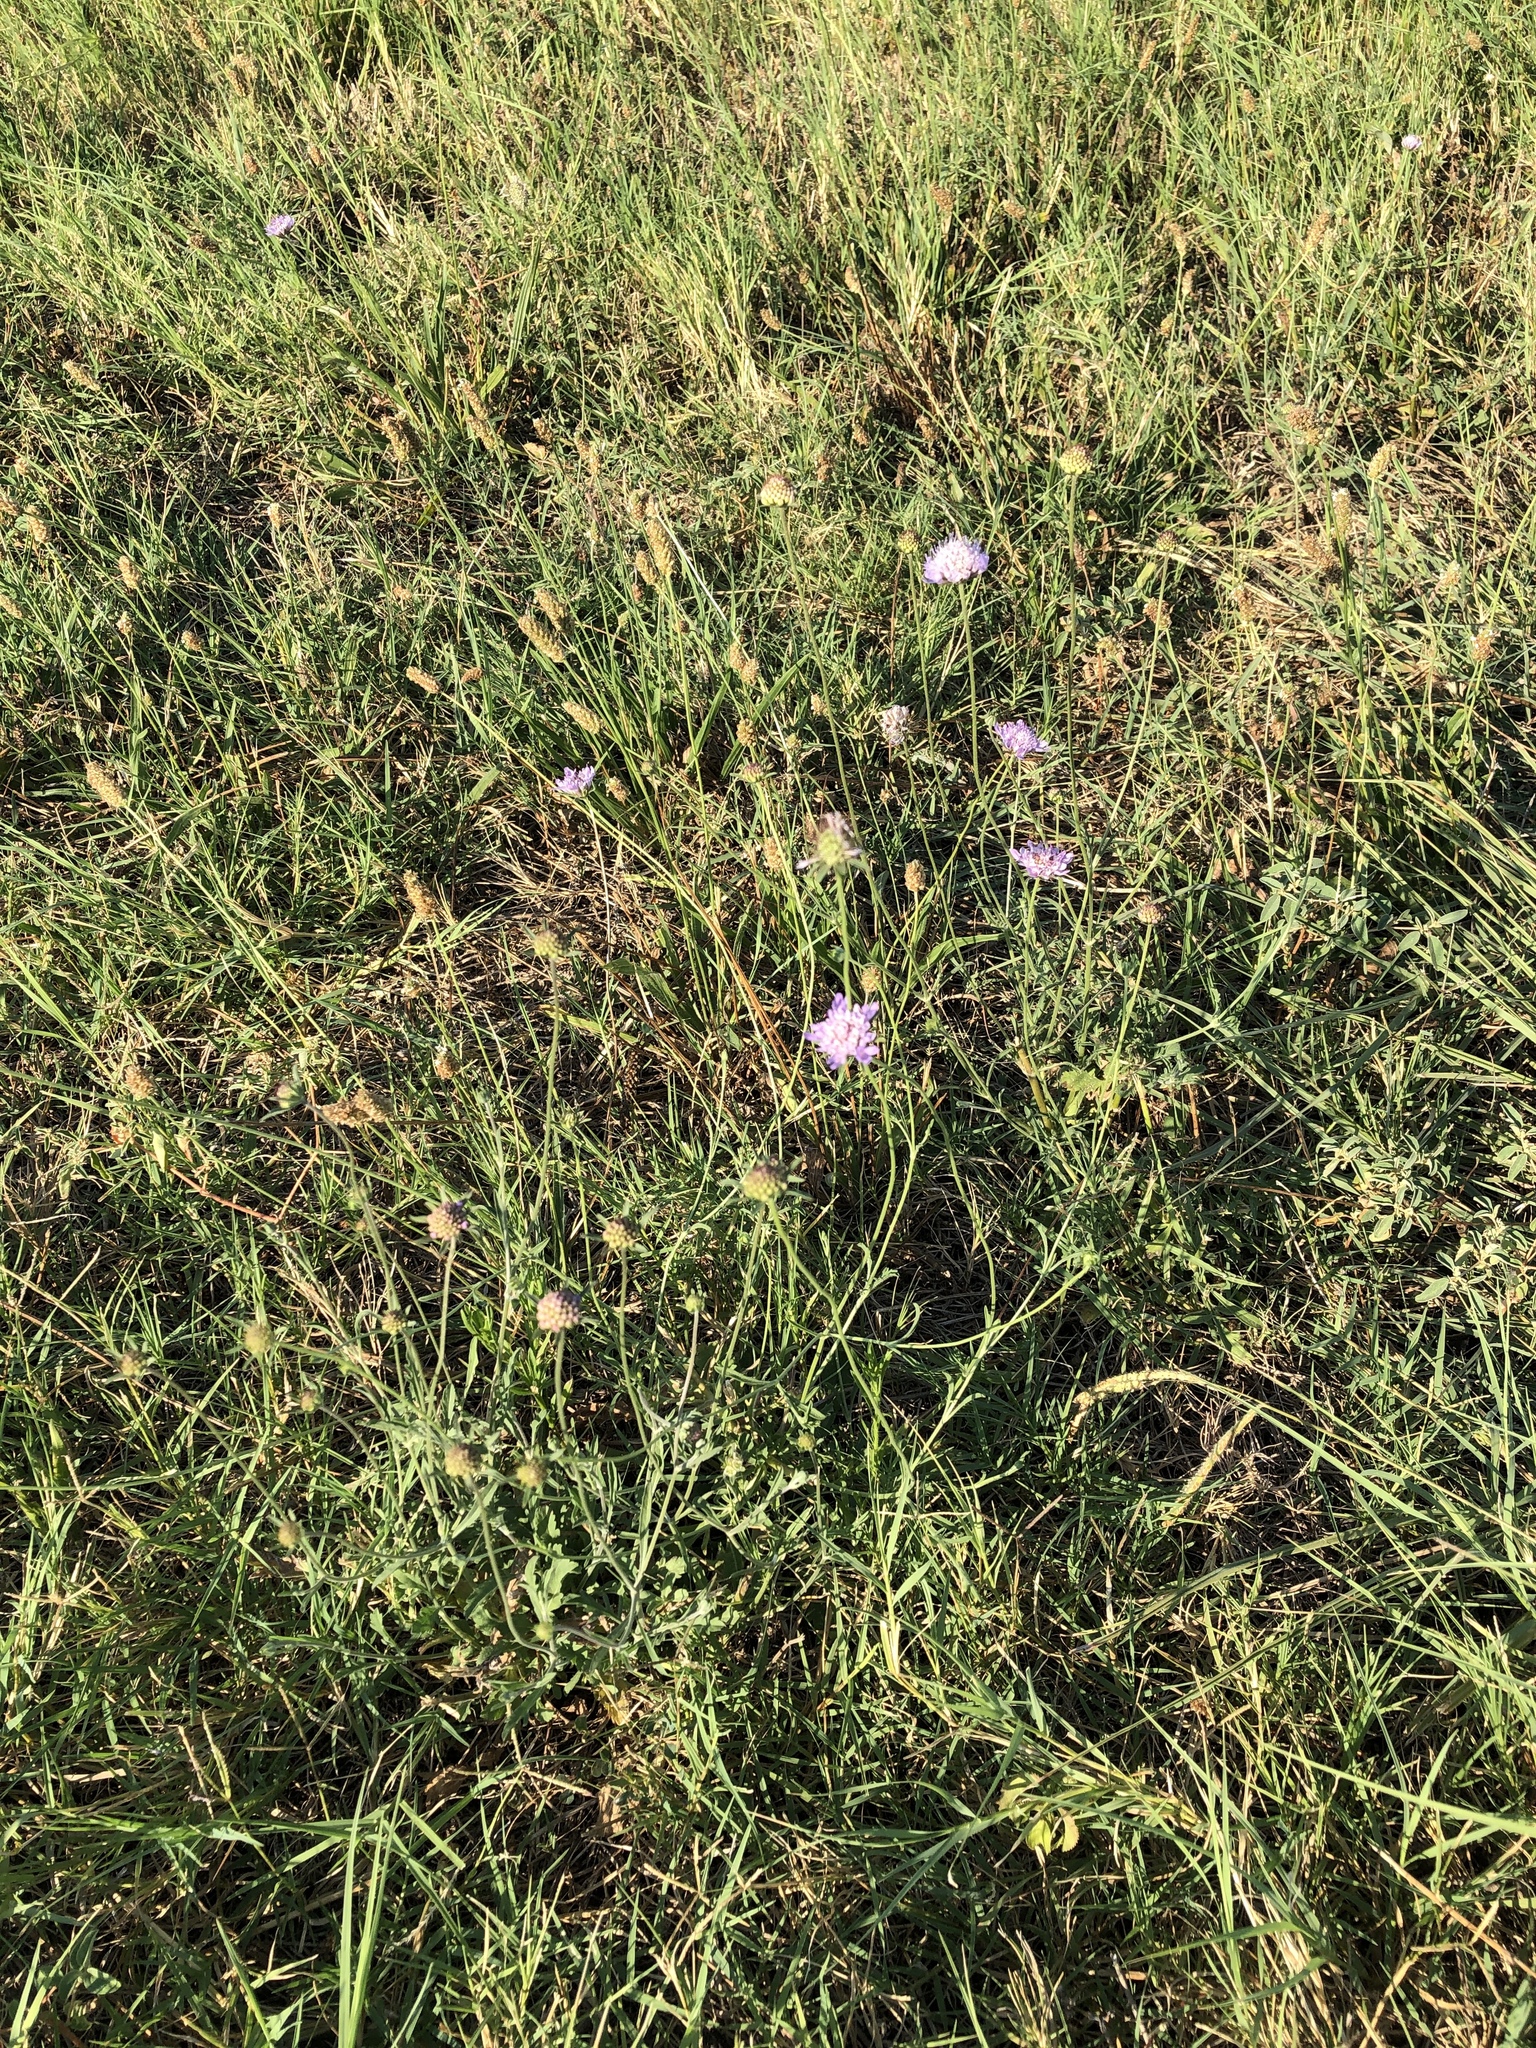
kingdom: Plantae
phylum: Tracheophyta
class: Magnoliopsida
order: Dipsacales
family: Caprifoliaceae
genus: Sixalix
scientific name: Sixalix atropurpurea
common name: Sweet scabious
